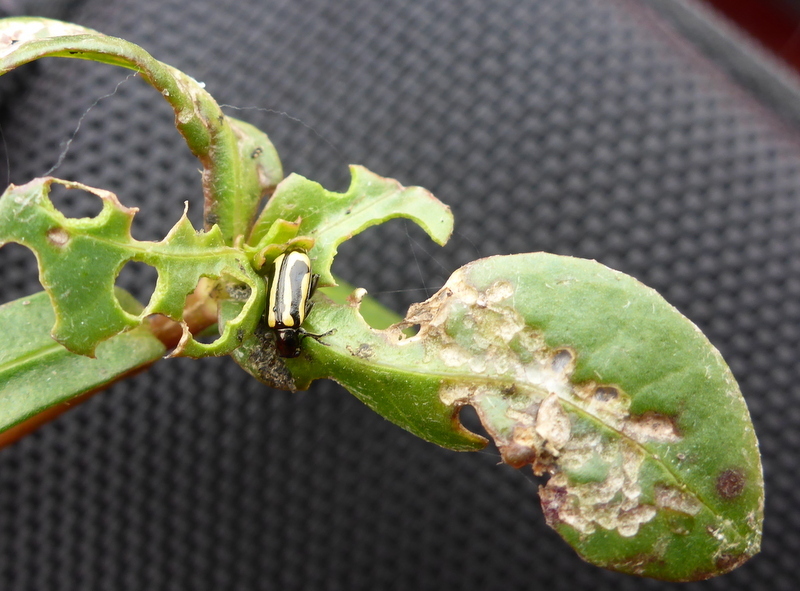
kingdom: Animalia
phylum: Arthropoda
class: Insecta
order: Coleoptera
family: Chrysomelidae
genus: Agasicles
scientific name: Agasicles hygrophila
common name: Alligatorweed flea beetle
